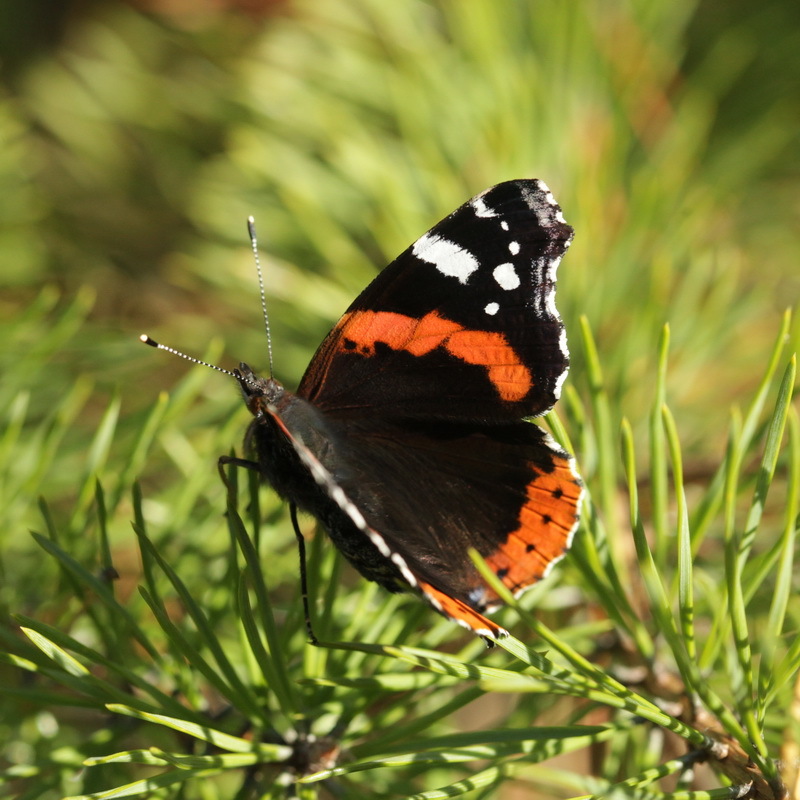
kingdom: Animalia
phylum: Arthropoda
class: Insecta
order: Lepidoptera
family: Nymphalidae
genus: Vanessa
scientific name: Vanessa atalanta
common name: Red admiral
